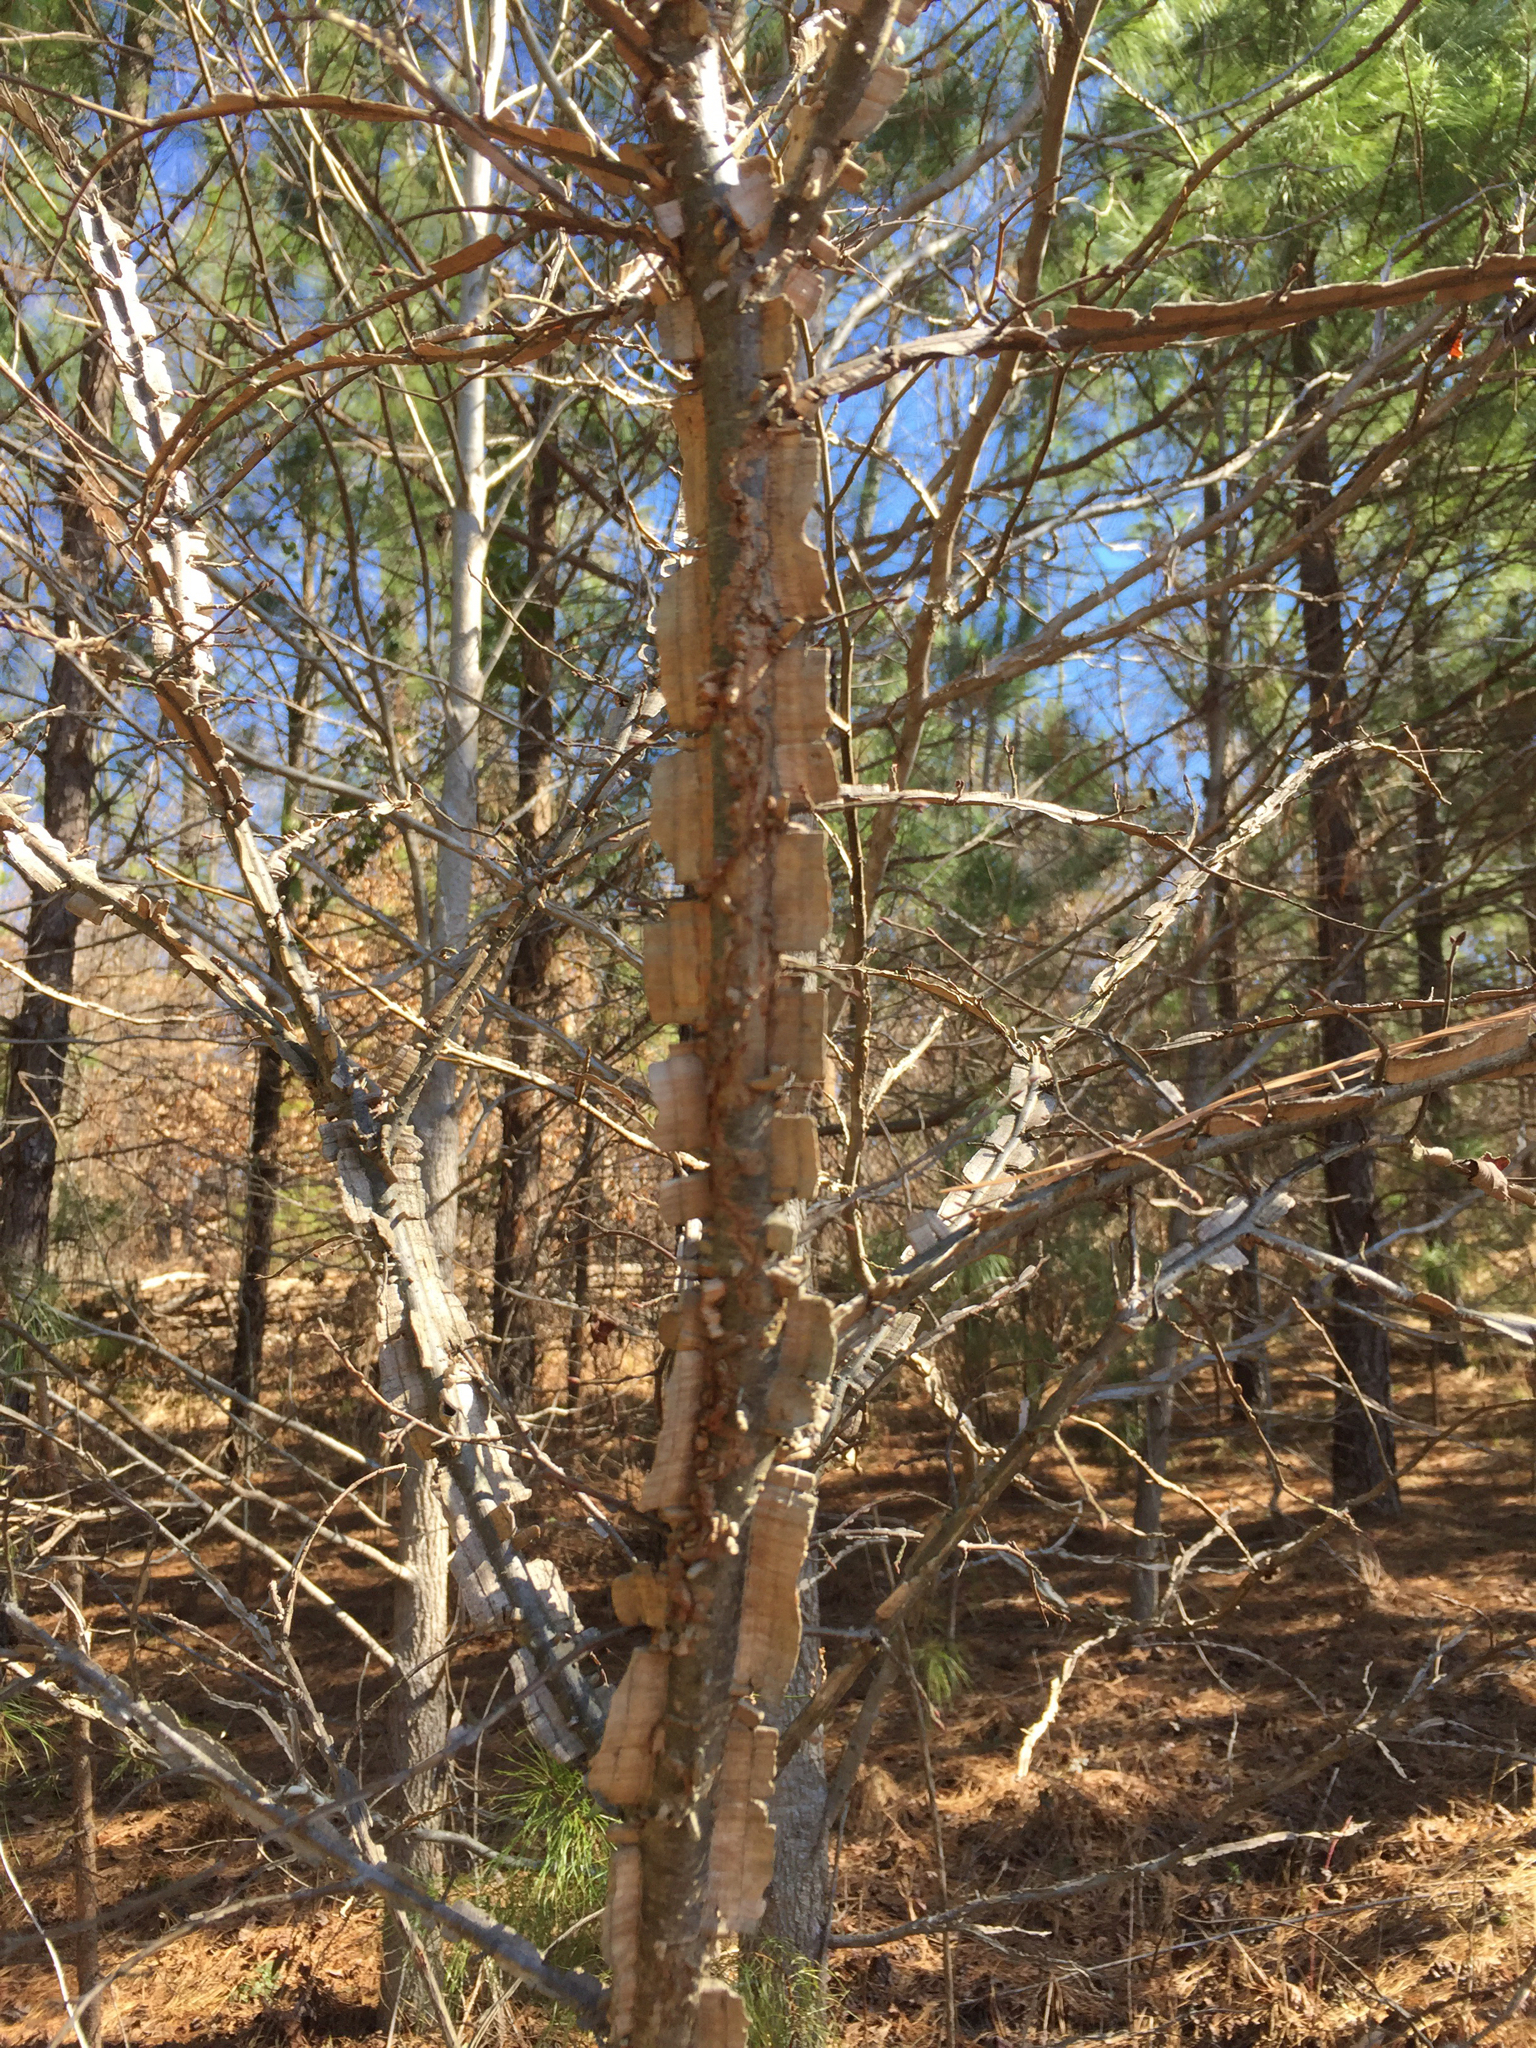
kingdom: Plantae
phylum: Tracheophyta
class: Magnoliopsida
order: Rosales
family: Ulmaceae
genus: Ulmus
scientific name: Ulmus alata
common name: Winged elm
